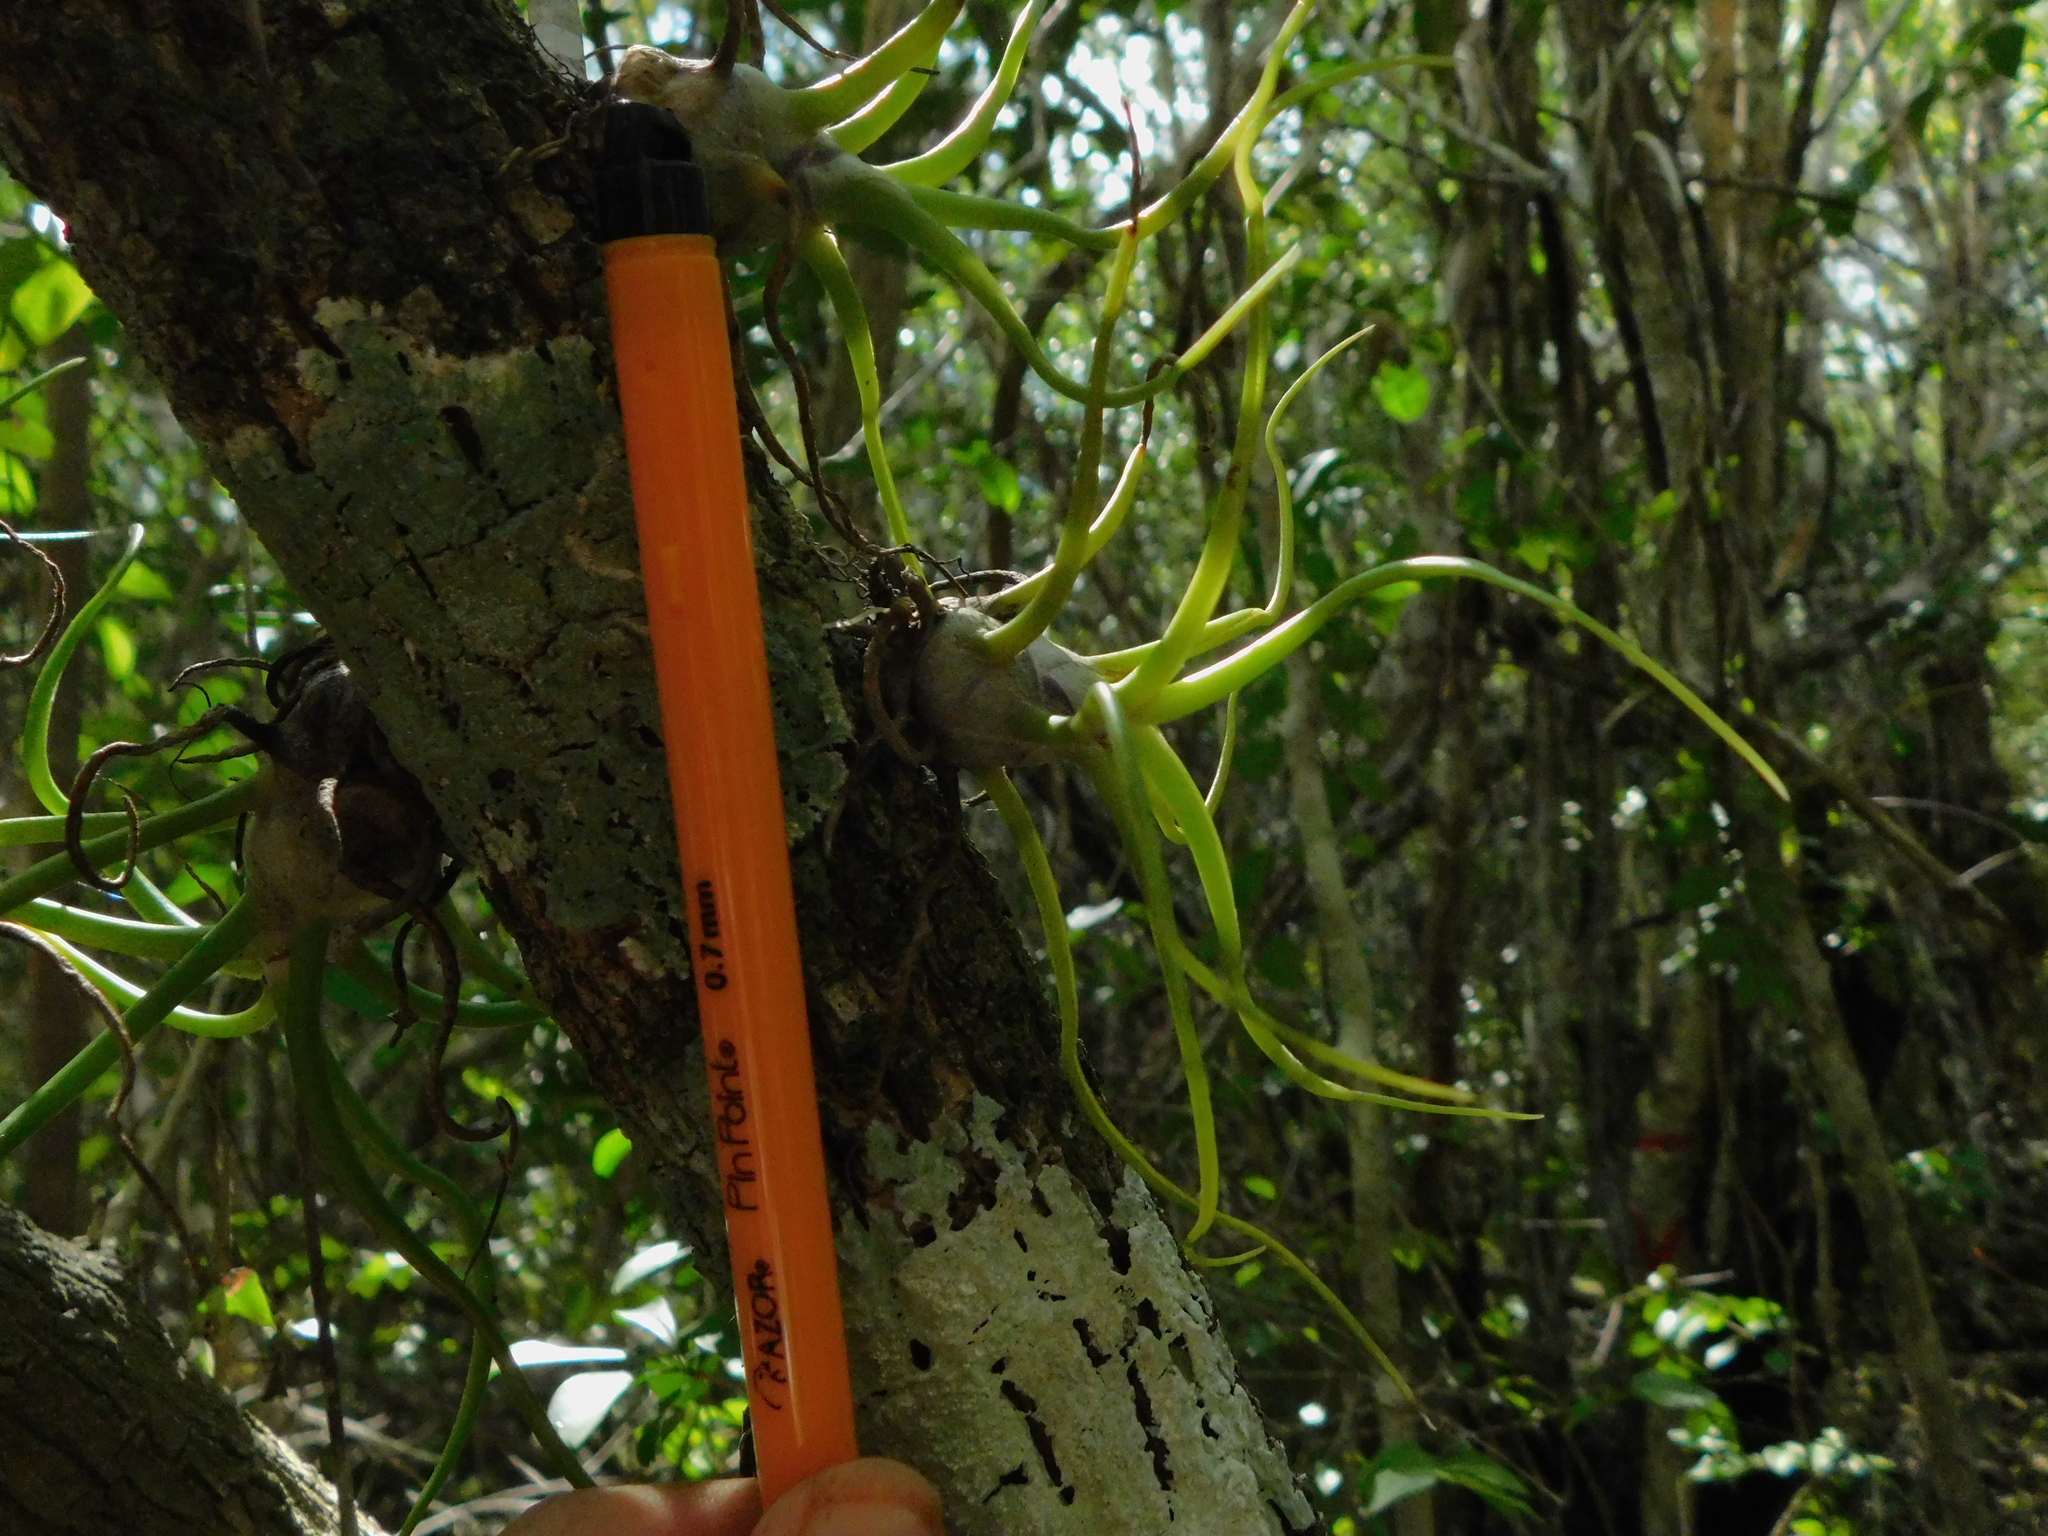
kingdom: Plantae
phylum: Tracheophyta
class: Liliopsida
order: Poales
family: Bromeliaceae
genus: Tillandsia
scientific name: Tillandsia bulbosa
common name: Bulbous airplant
